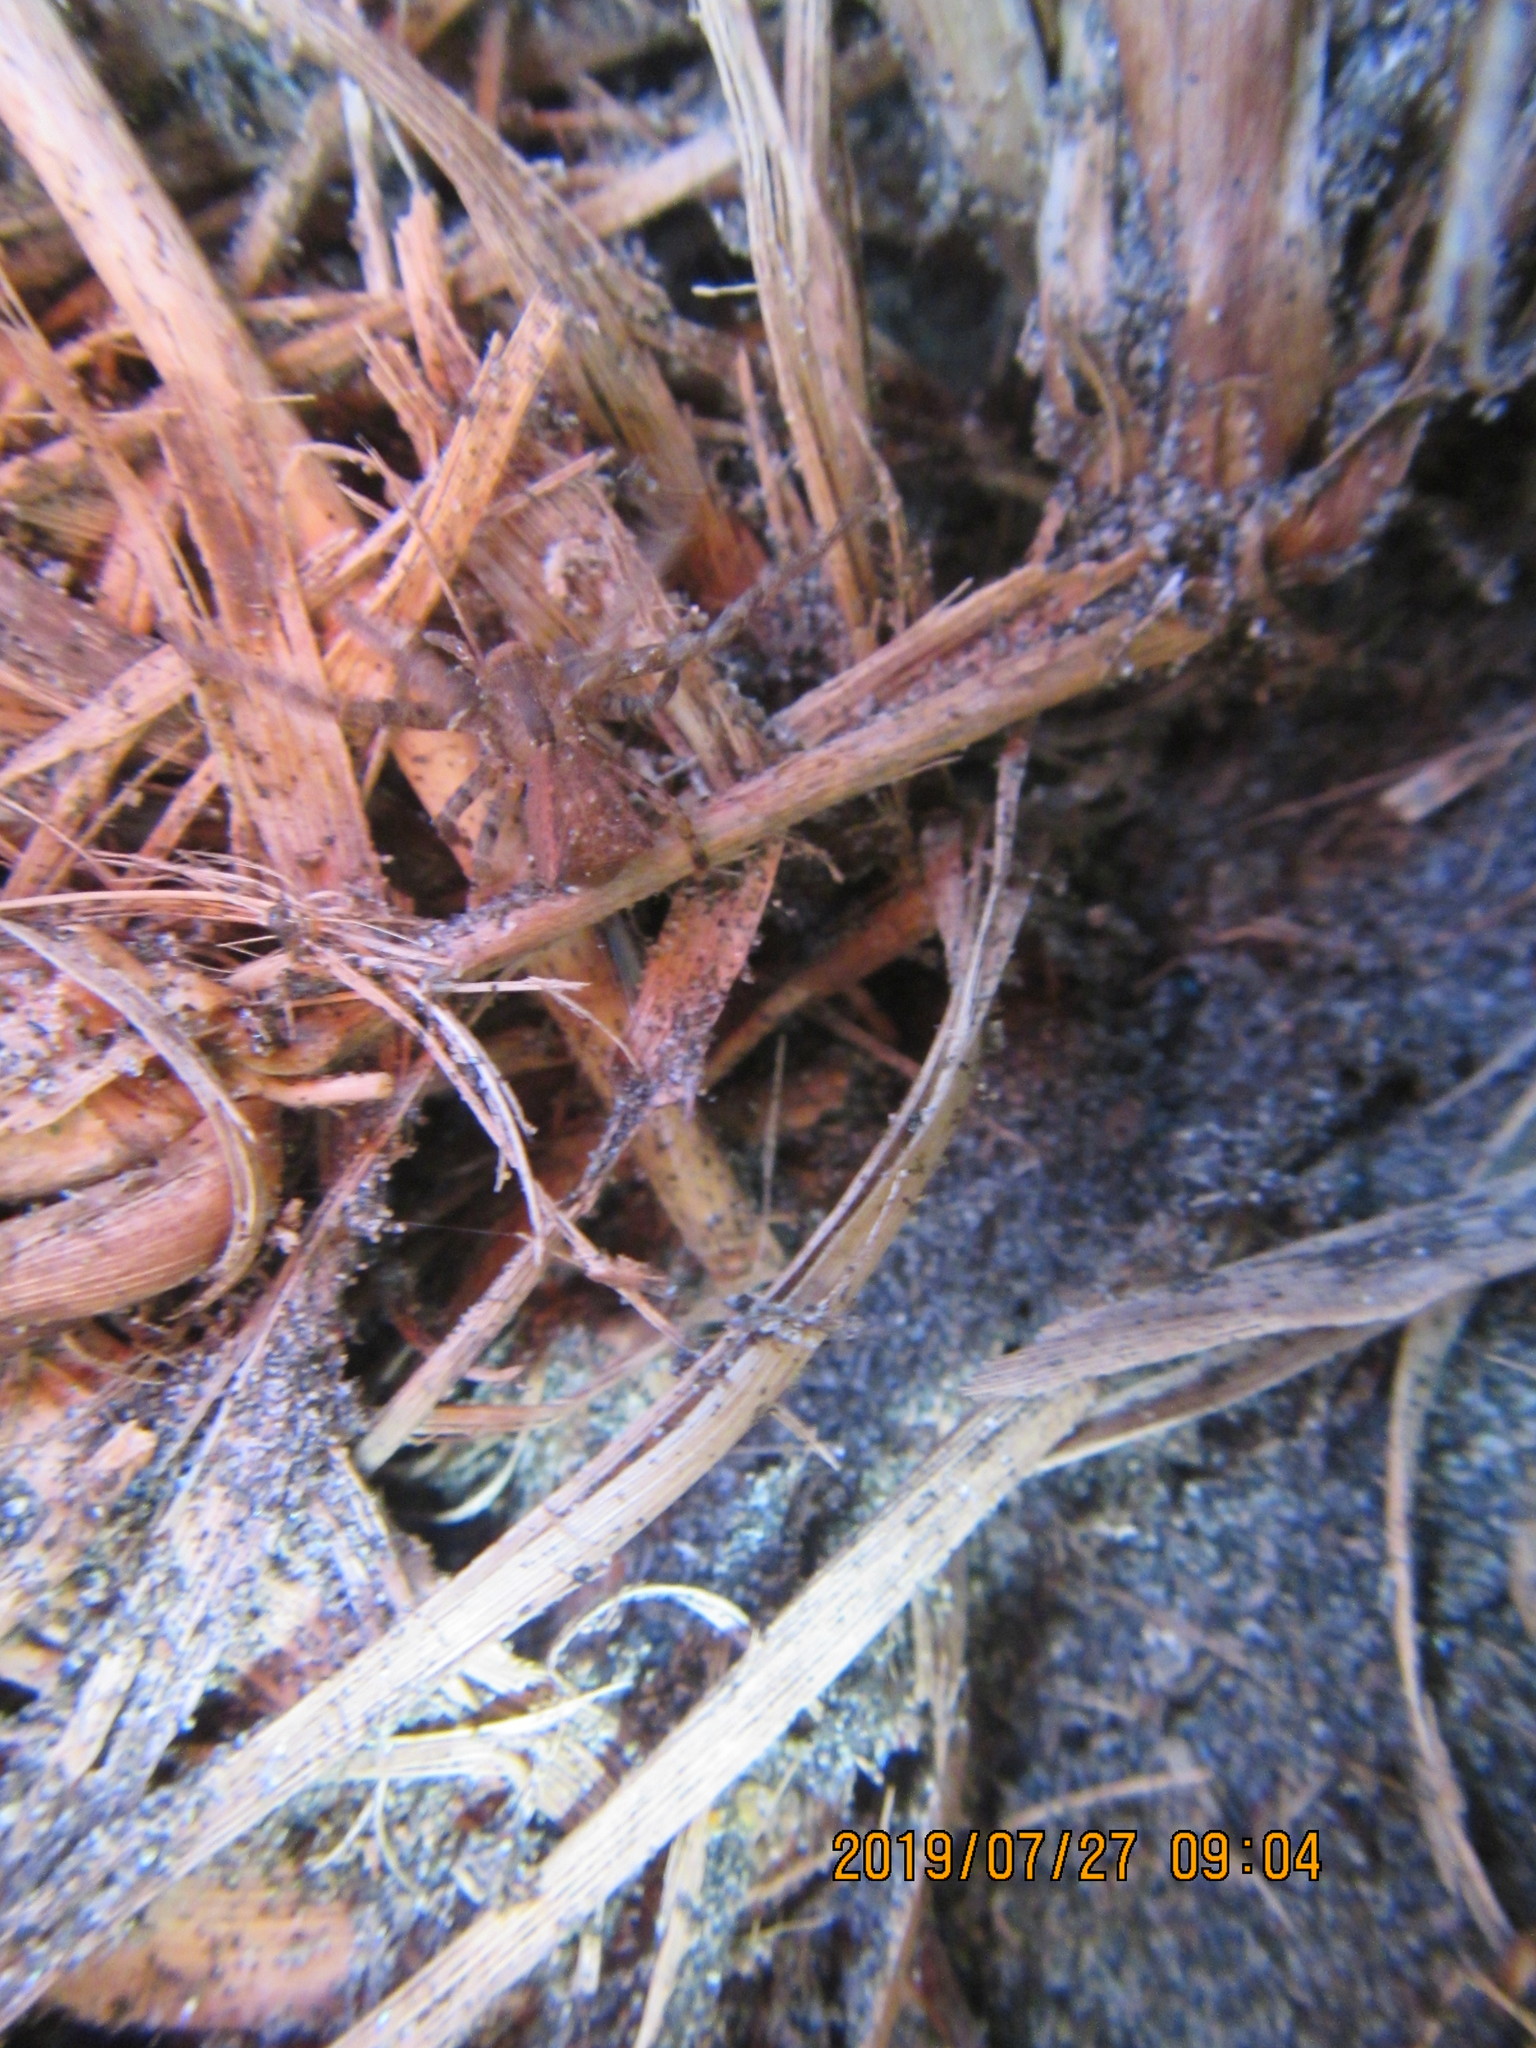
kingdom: Animalia
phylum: Arthropoda
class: Arachnida
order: Araneae
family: Theridiidae
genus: Latrodectus
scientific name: Latrodectus katipo
